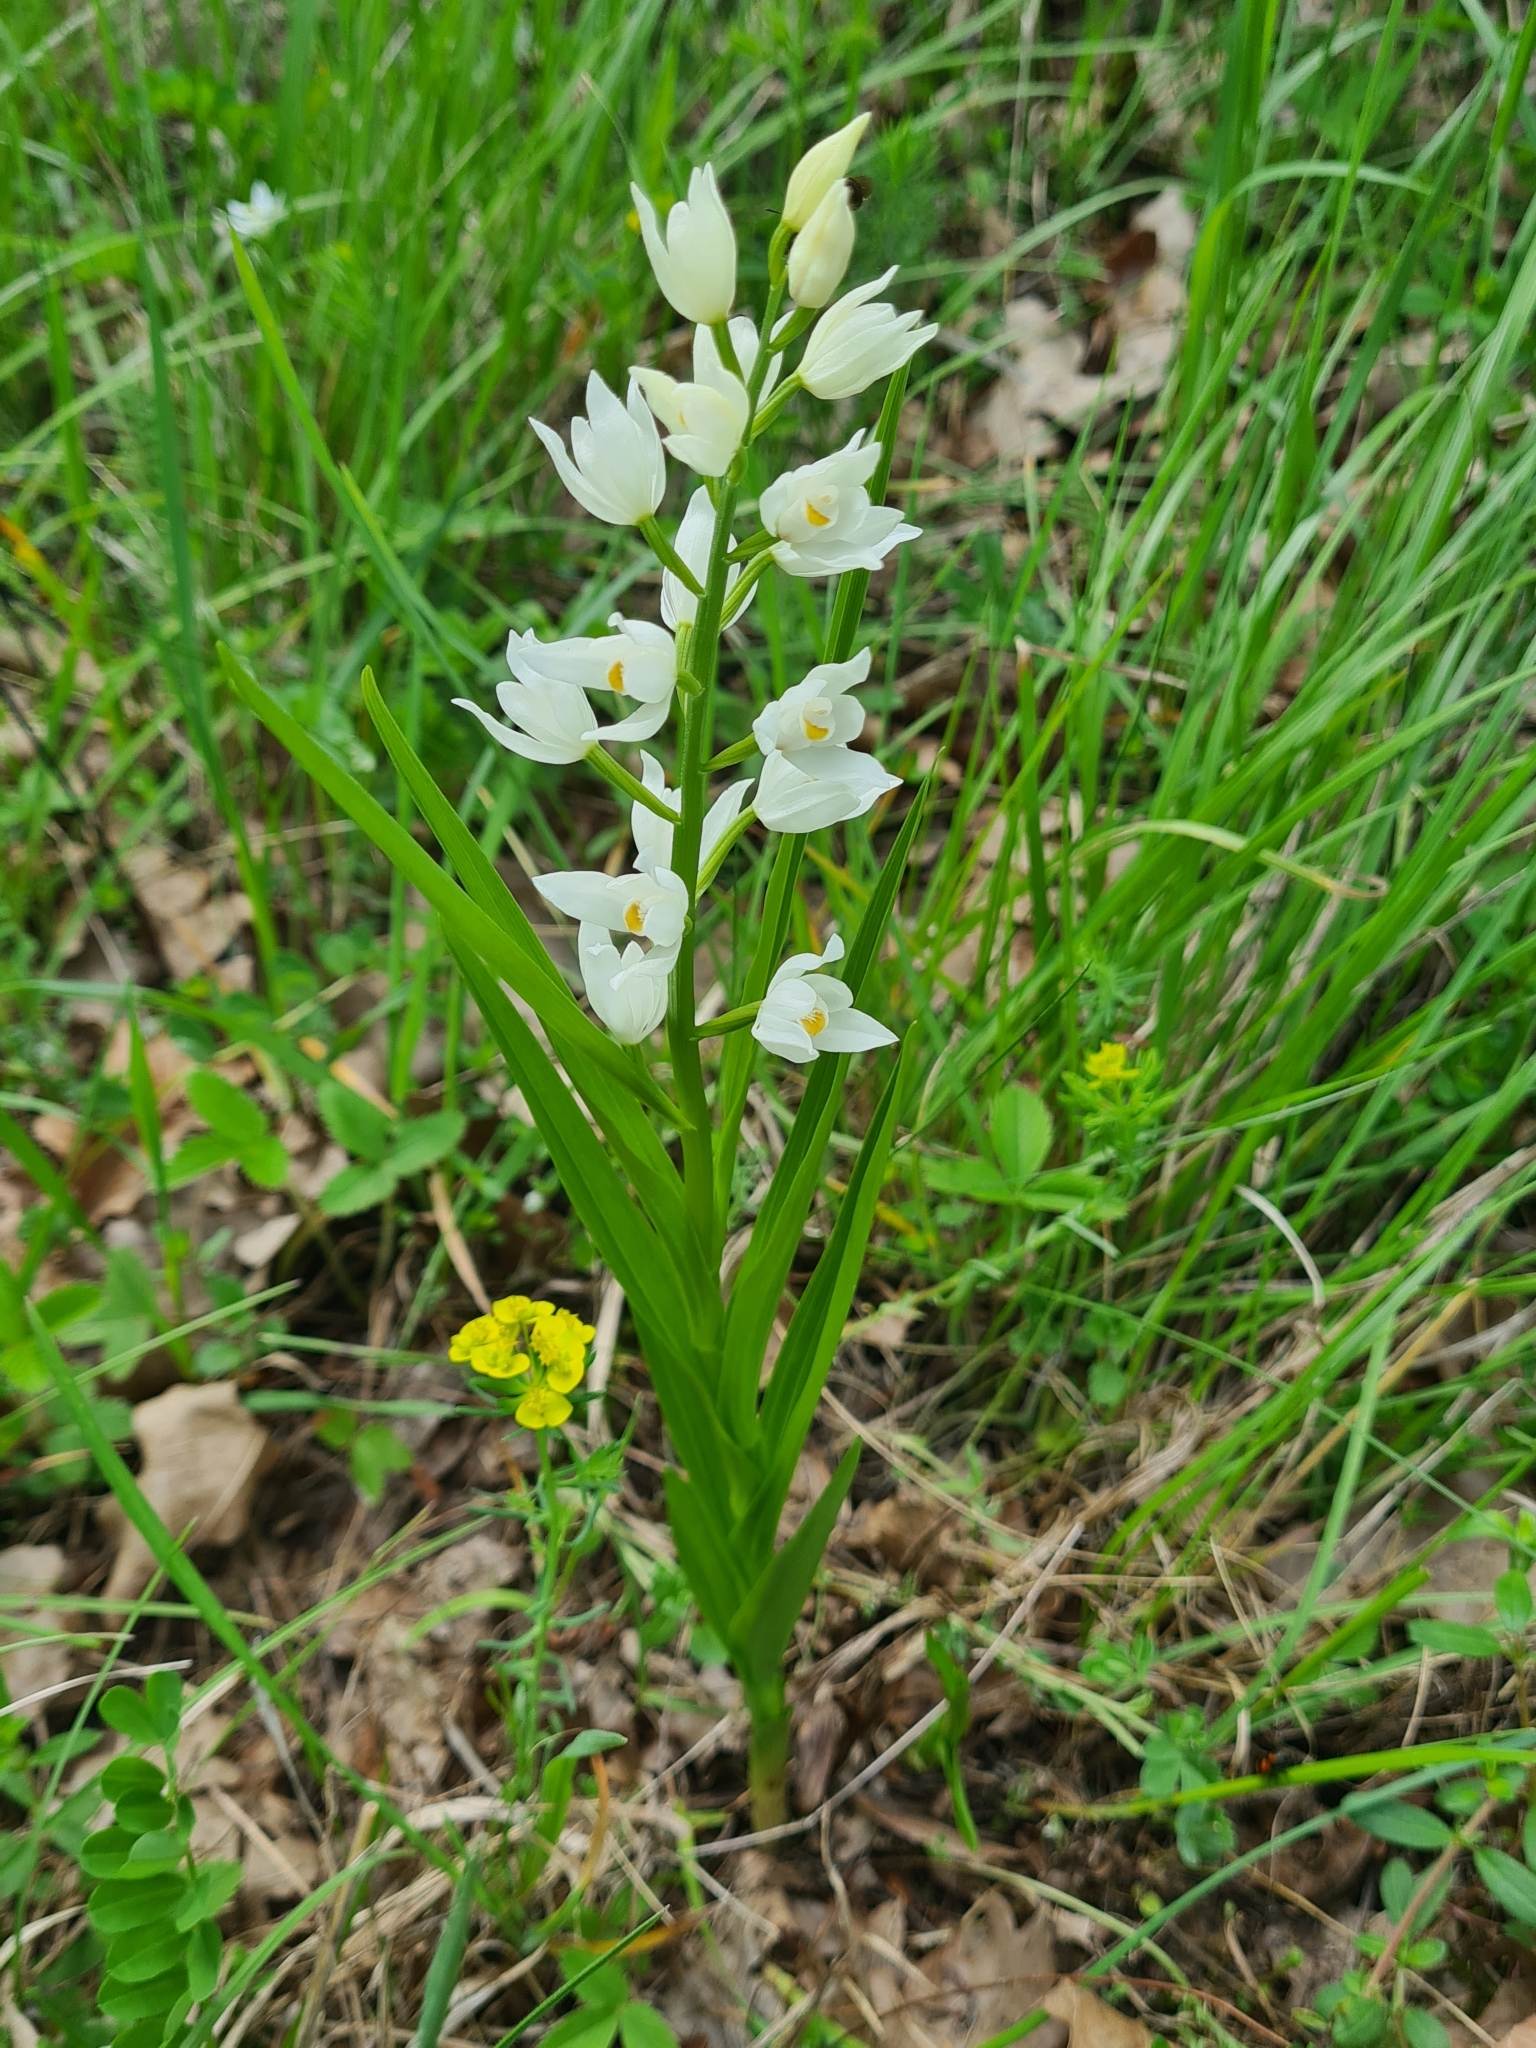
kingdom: Plantae
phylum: Tracheophyta
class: Liliopsida
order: Asparagales
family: Orchidaceae
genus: Cephalanthera
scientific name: Cephalanthera longifolia
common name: Narrow-leaved helleborine
